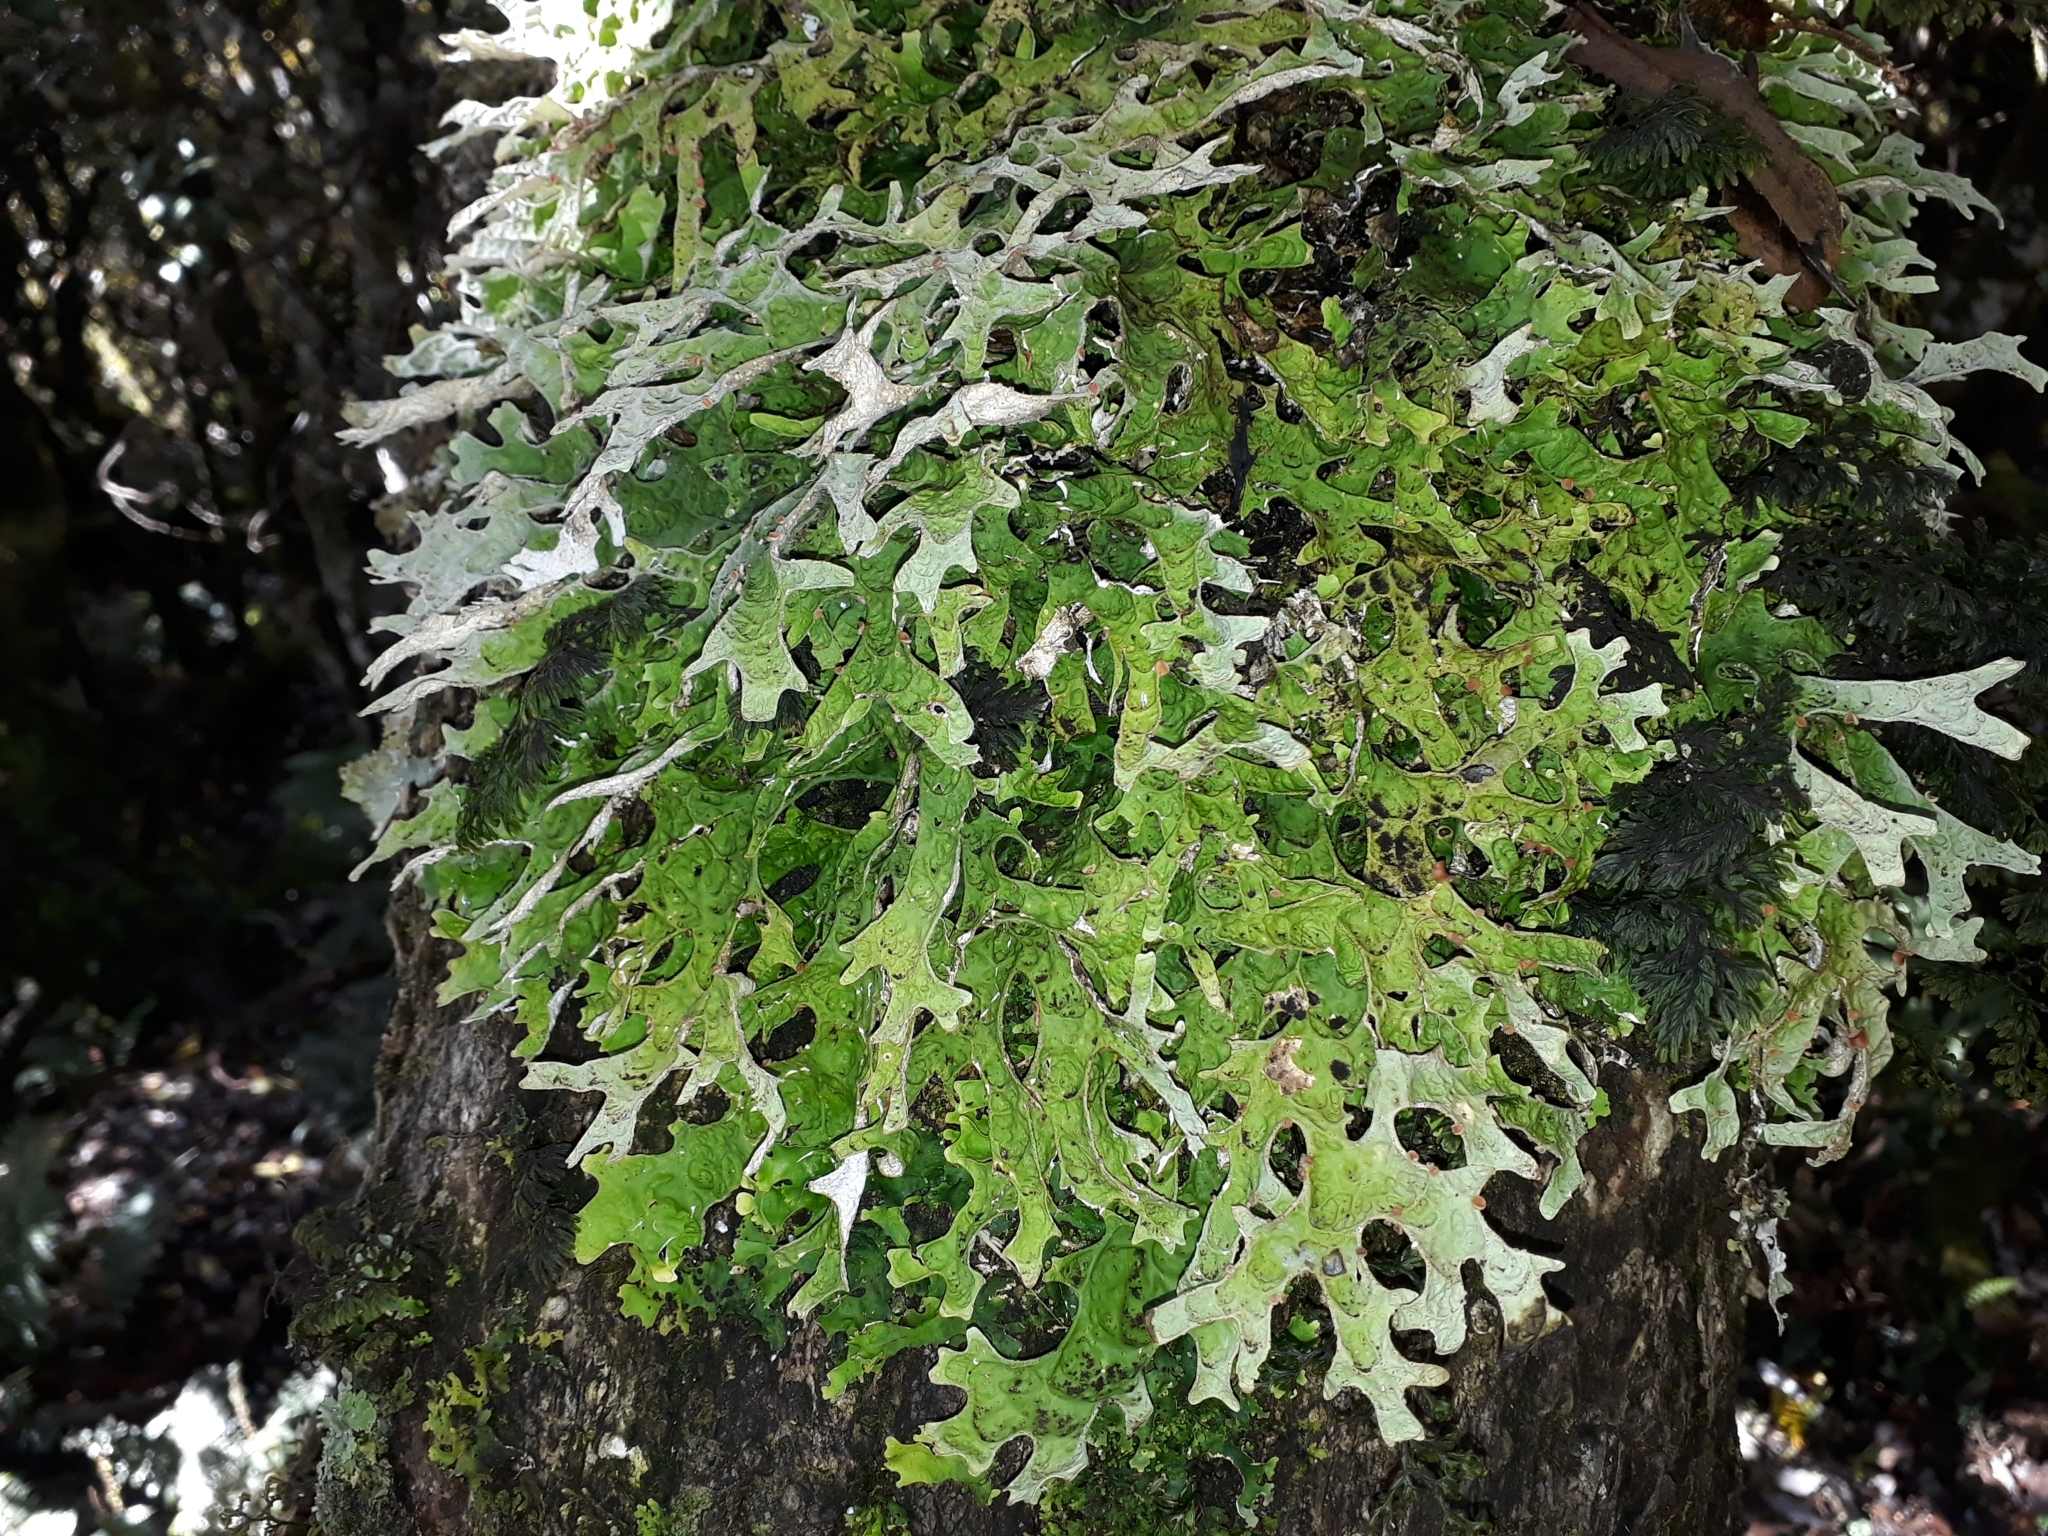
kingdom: Fungi
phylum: Ascomycota
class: Lecanoromycetes
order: Peltigerales
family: Lobariaceae
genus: Pseudocyphellaria
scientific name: Pseudocyphellaria rufovirescens
